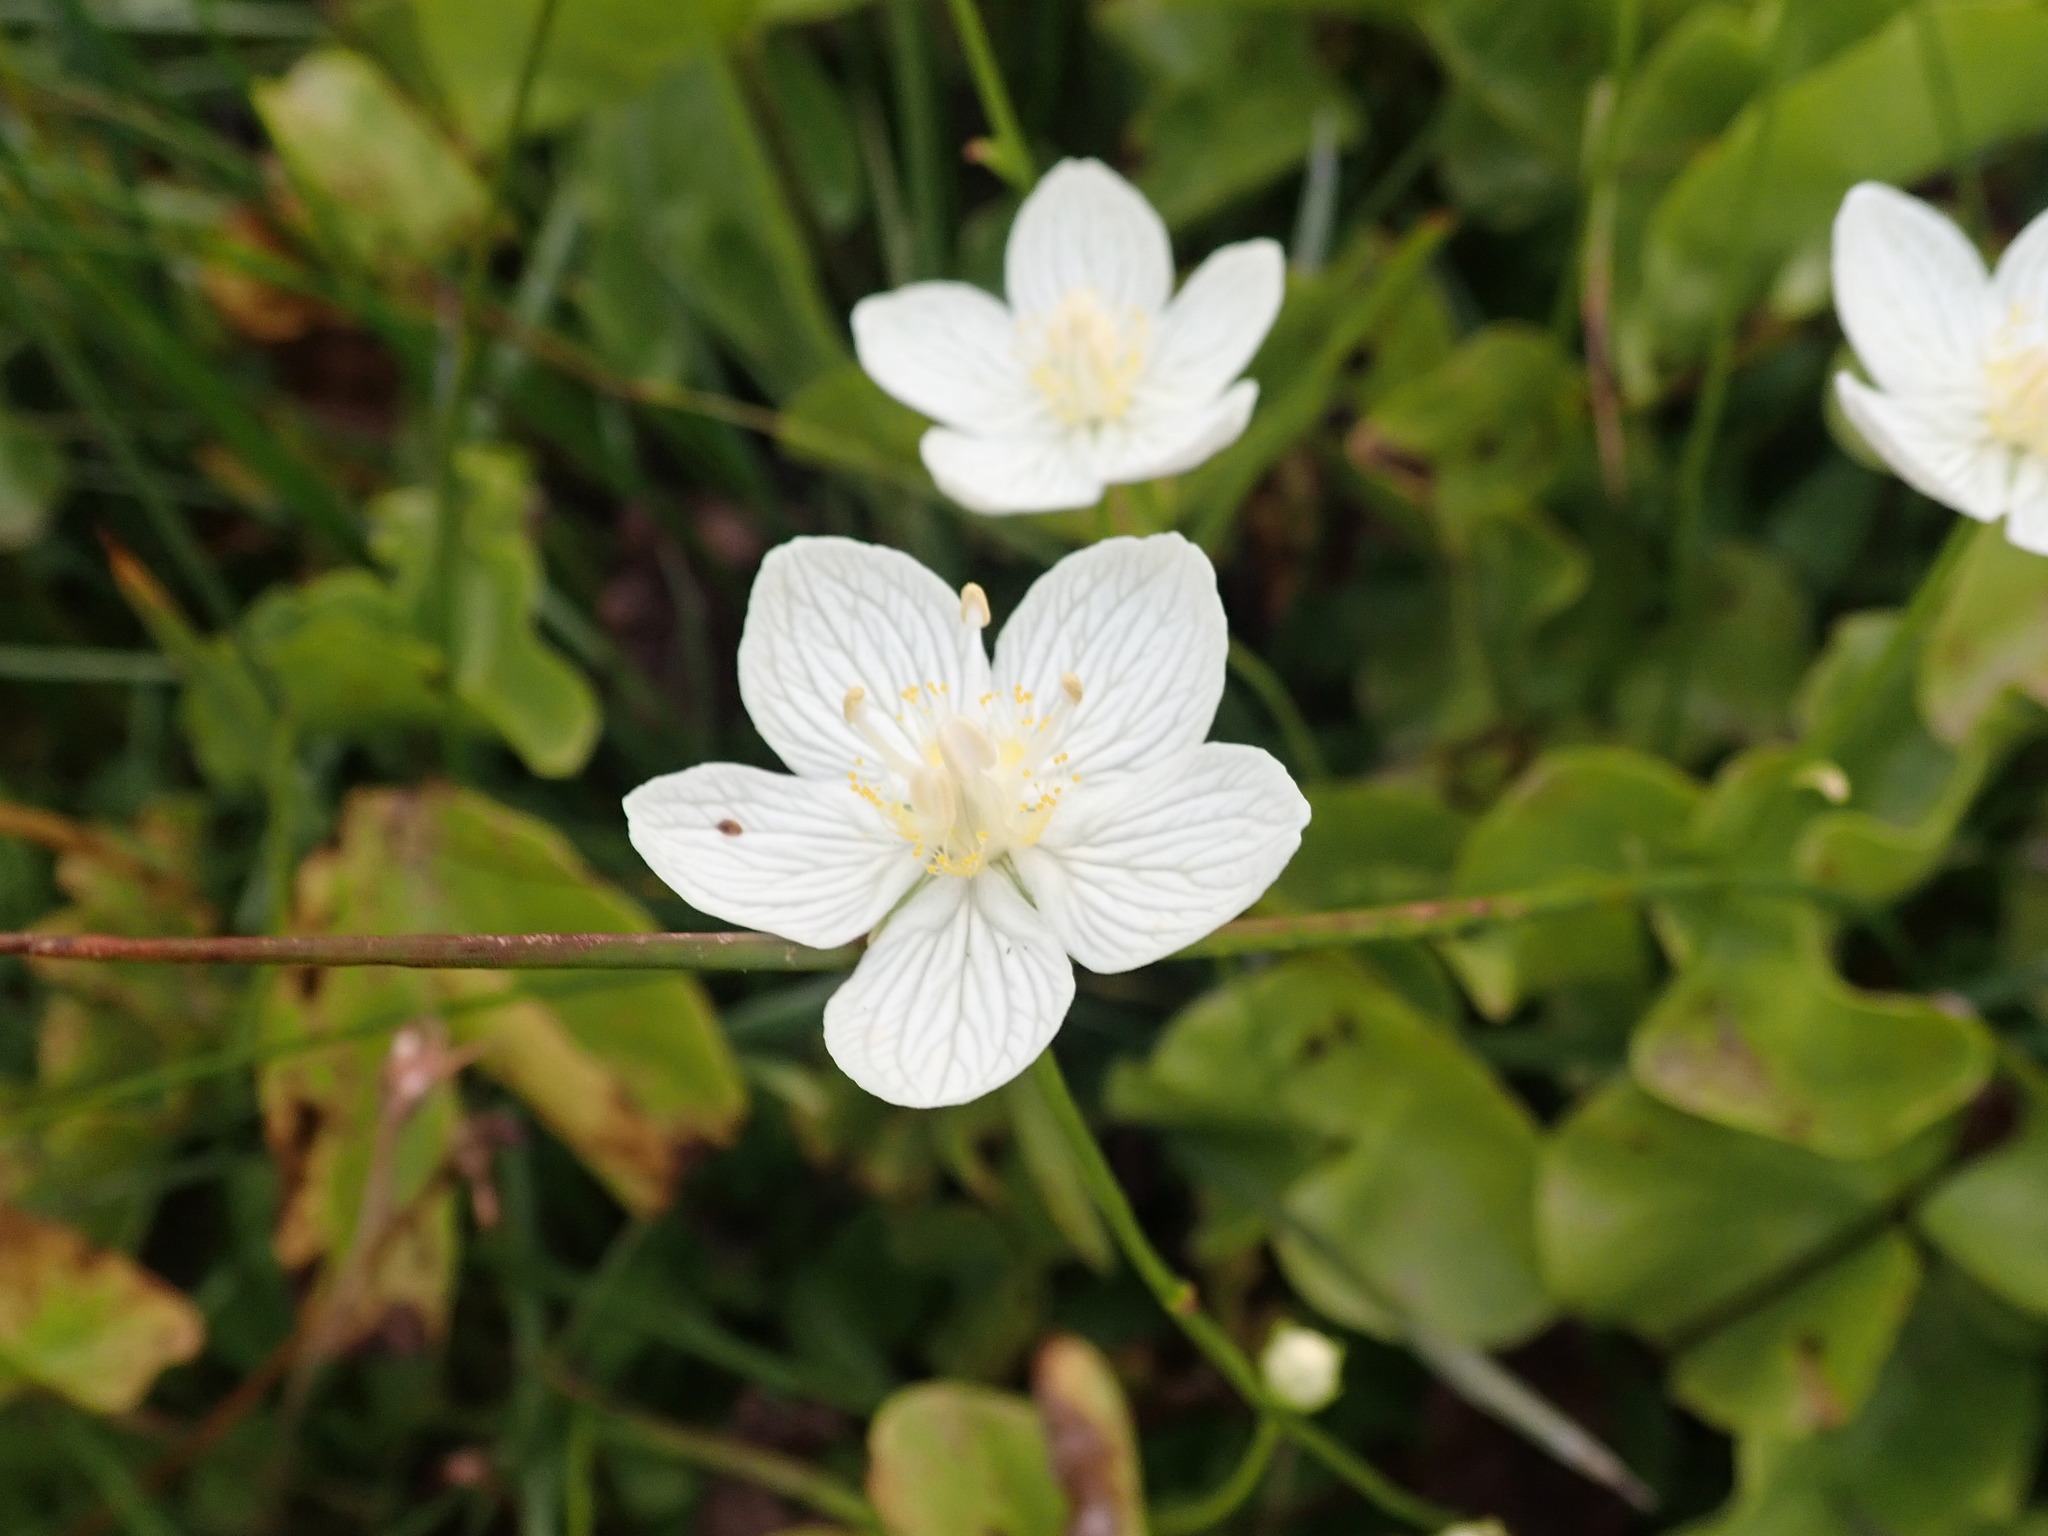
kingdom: Plantae
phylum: Tracheophyta
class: Magnoliopsida
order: Celastrales
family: Parnassiaceae
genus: Parnassia
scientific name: Parnassia palustris
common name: Grass-of-parnassus
